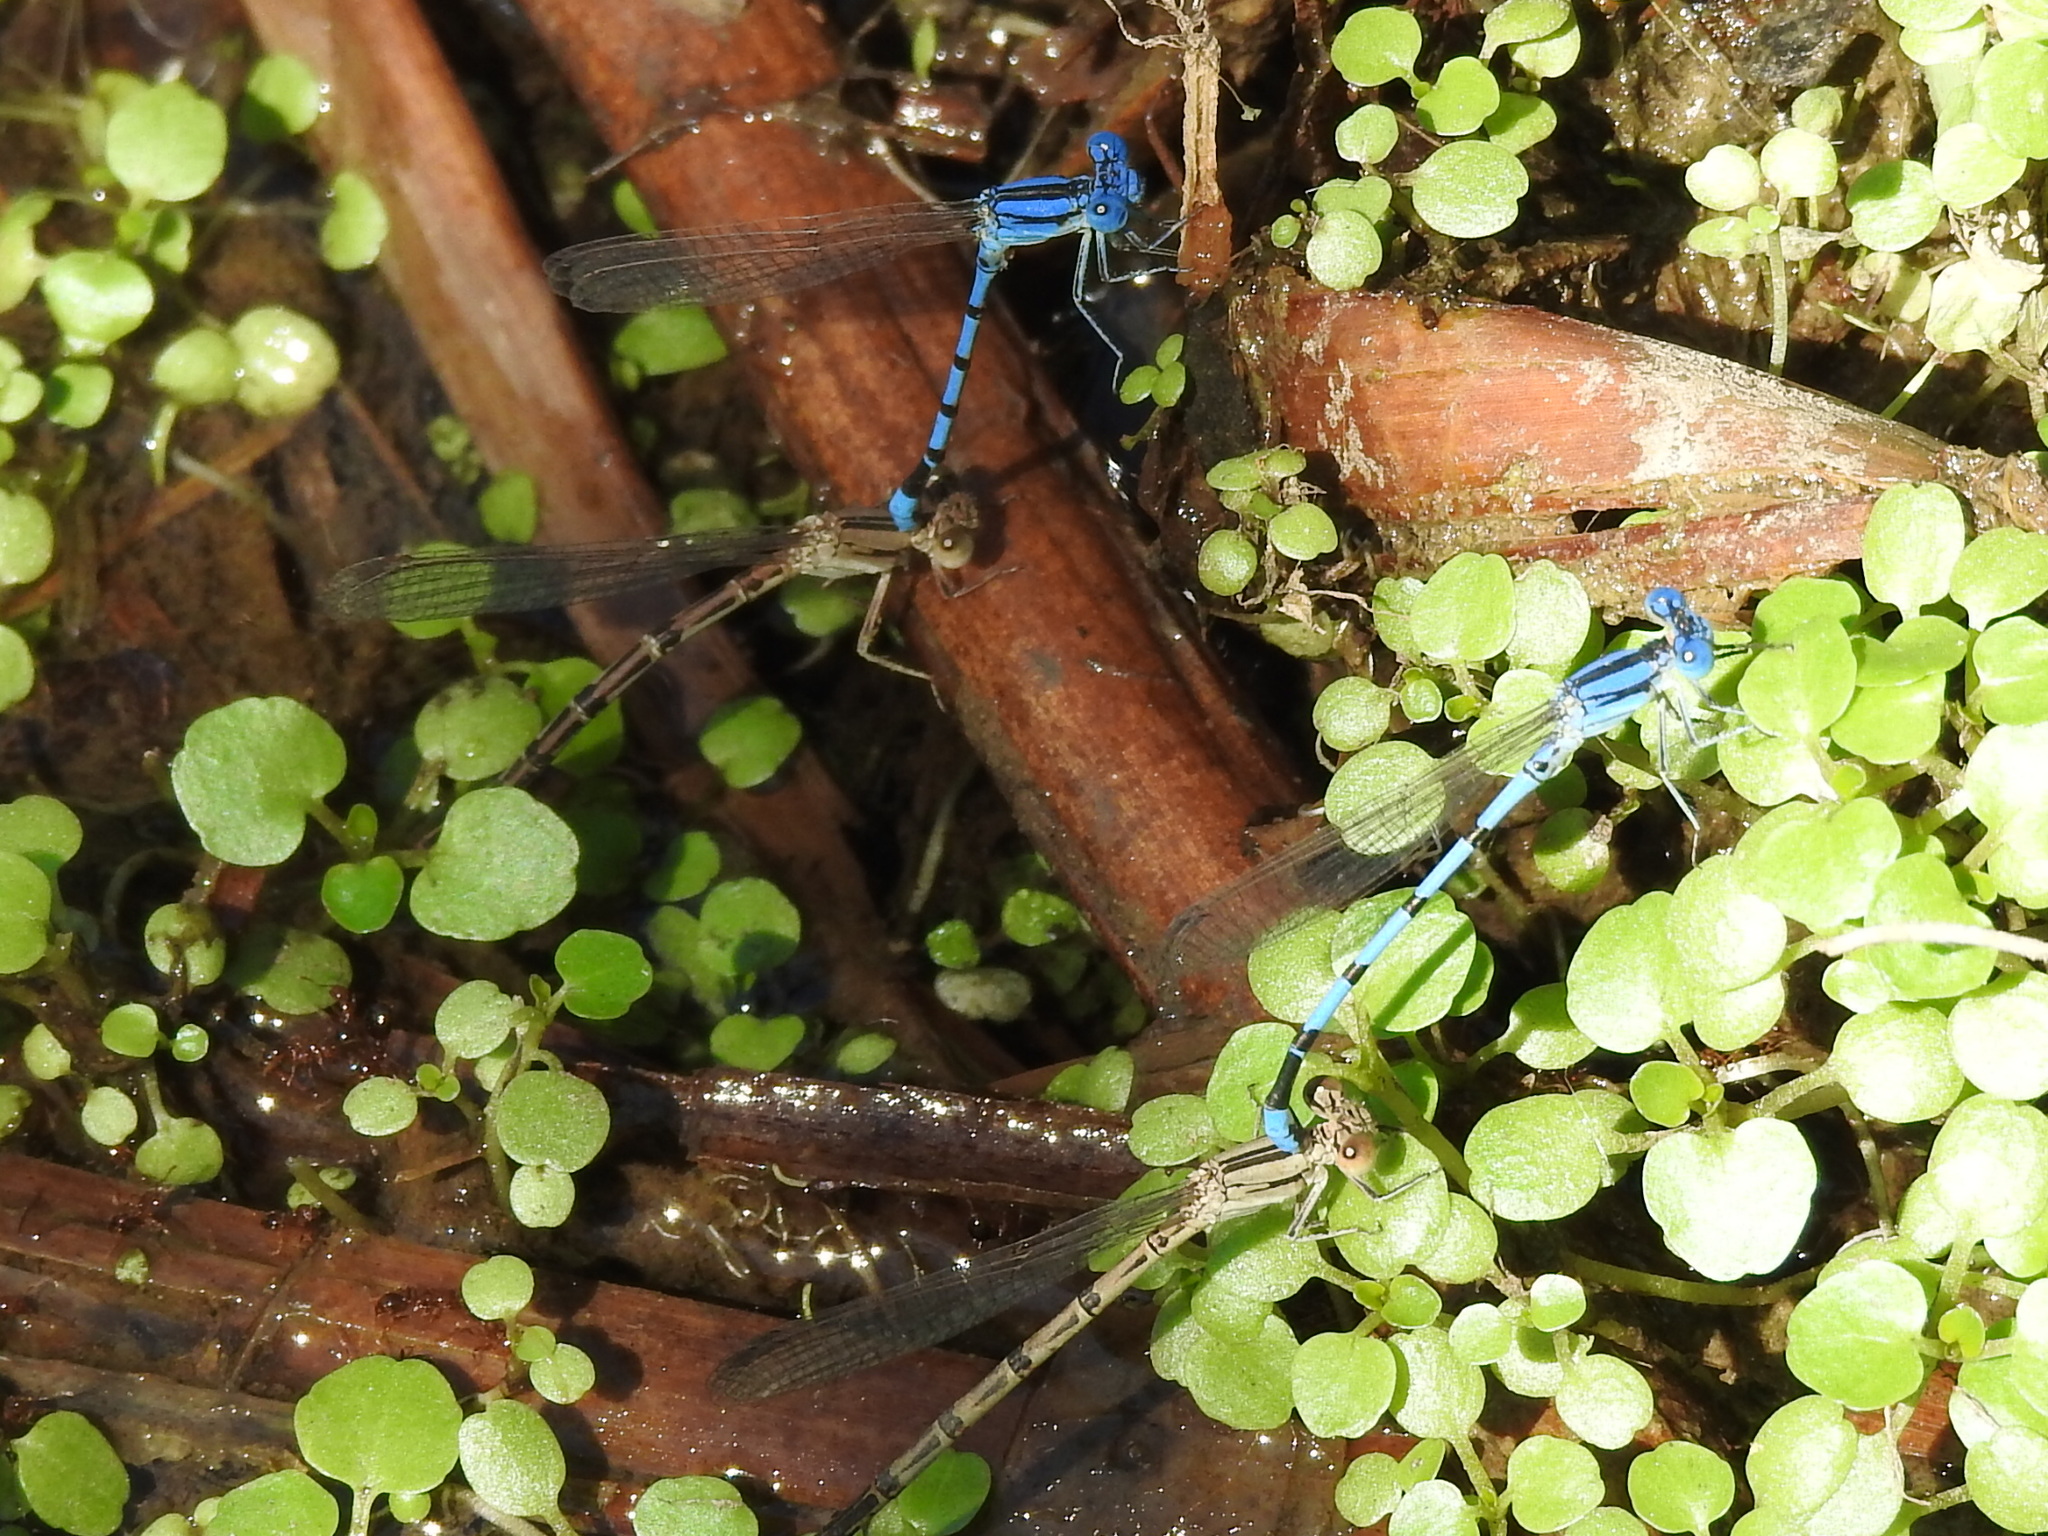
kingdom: Animalia
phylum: Arthropoda
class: Insecta
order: Odonata
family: Coenagrionidae
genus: Argia
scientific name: Argia nahuana
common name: Aztec dancer
